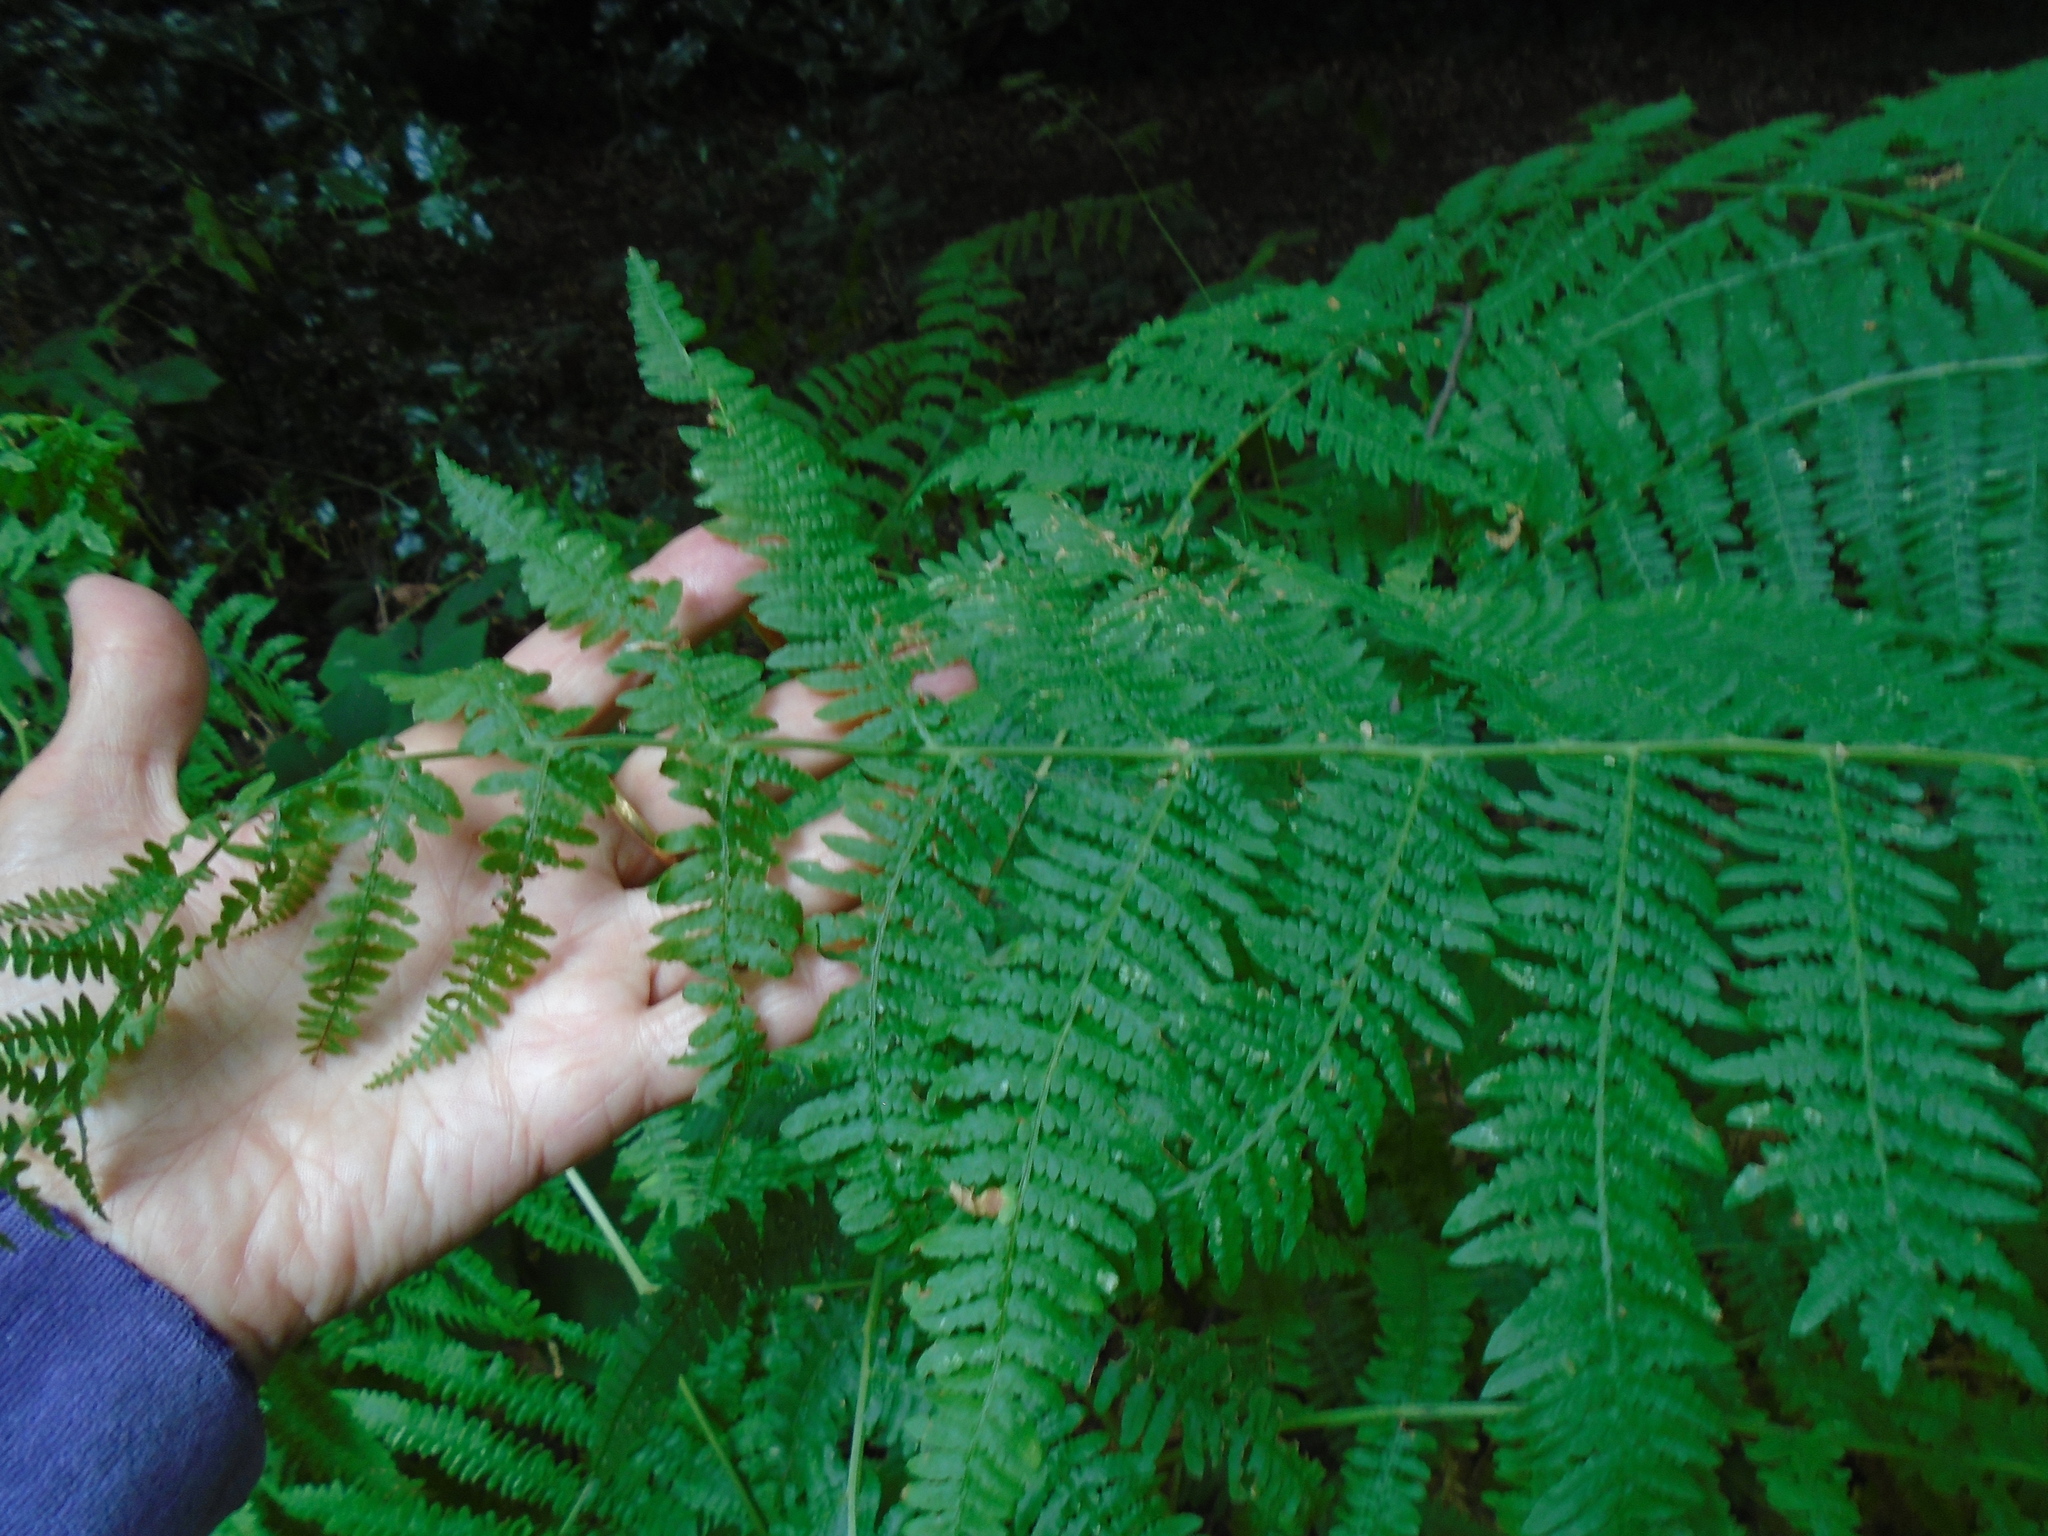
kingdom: Plantae
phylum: Tracheophyta
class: Polypodiopsida
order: Polypodiales
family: Dennstaedtiaceae
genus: Pteridium
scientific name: Pteridium aquilinum
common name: Bracken
